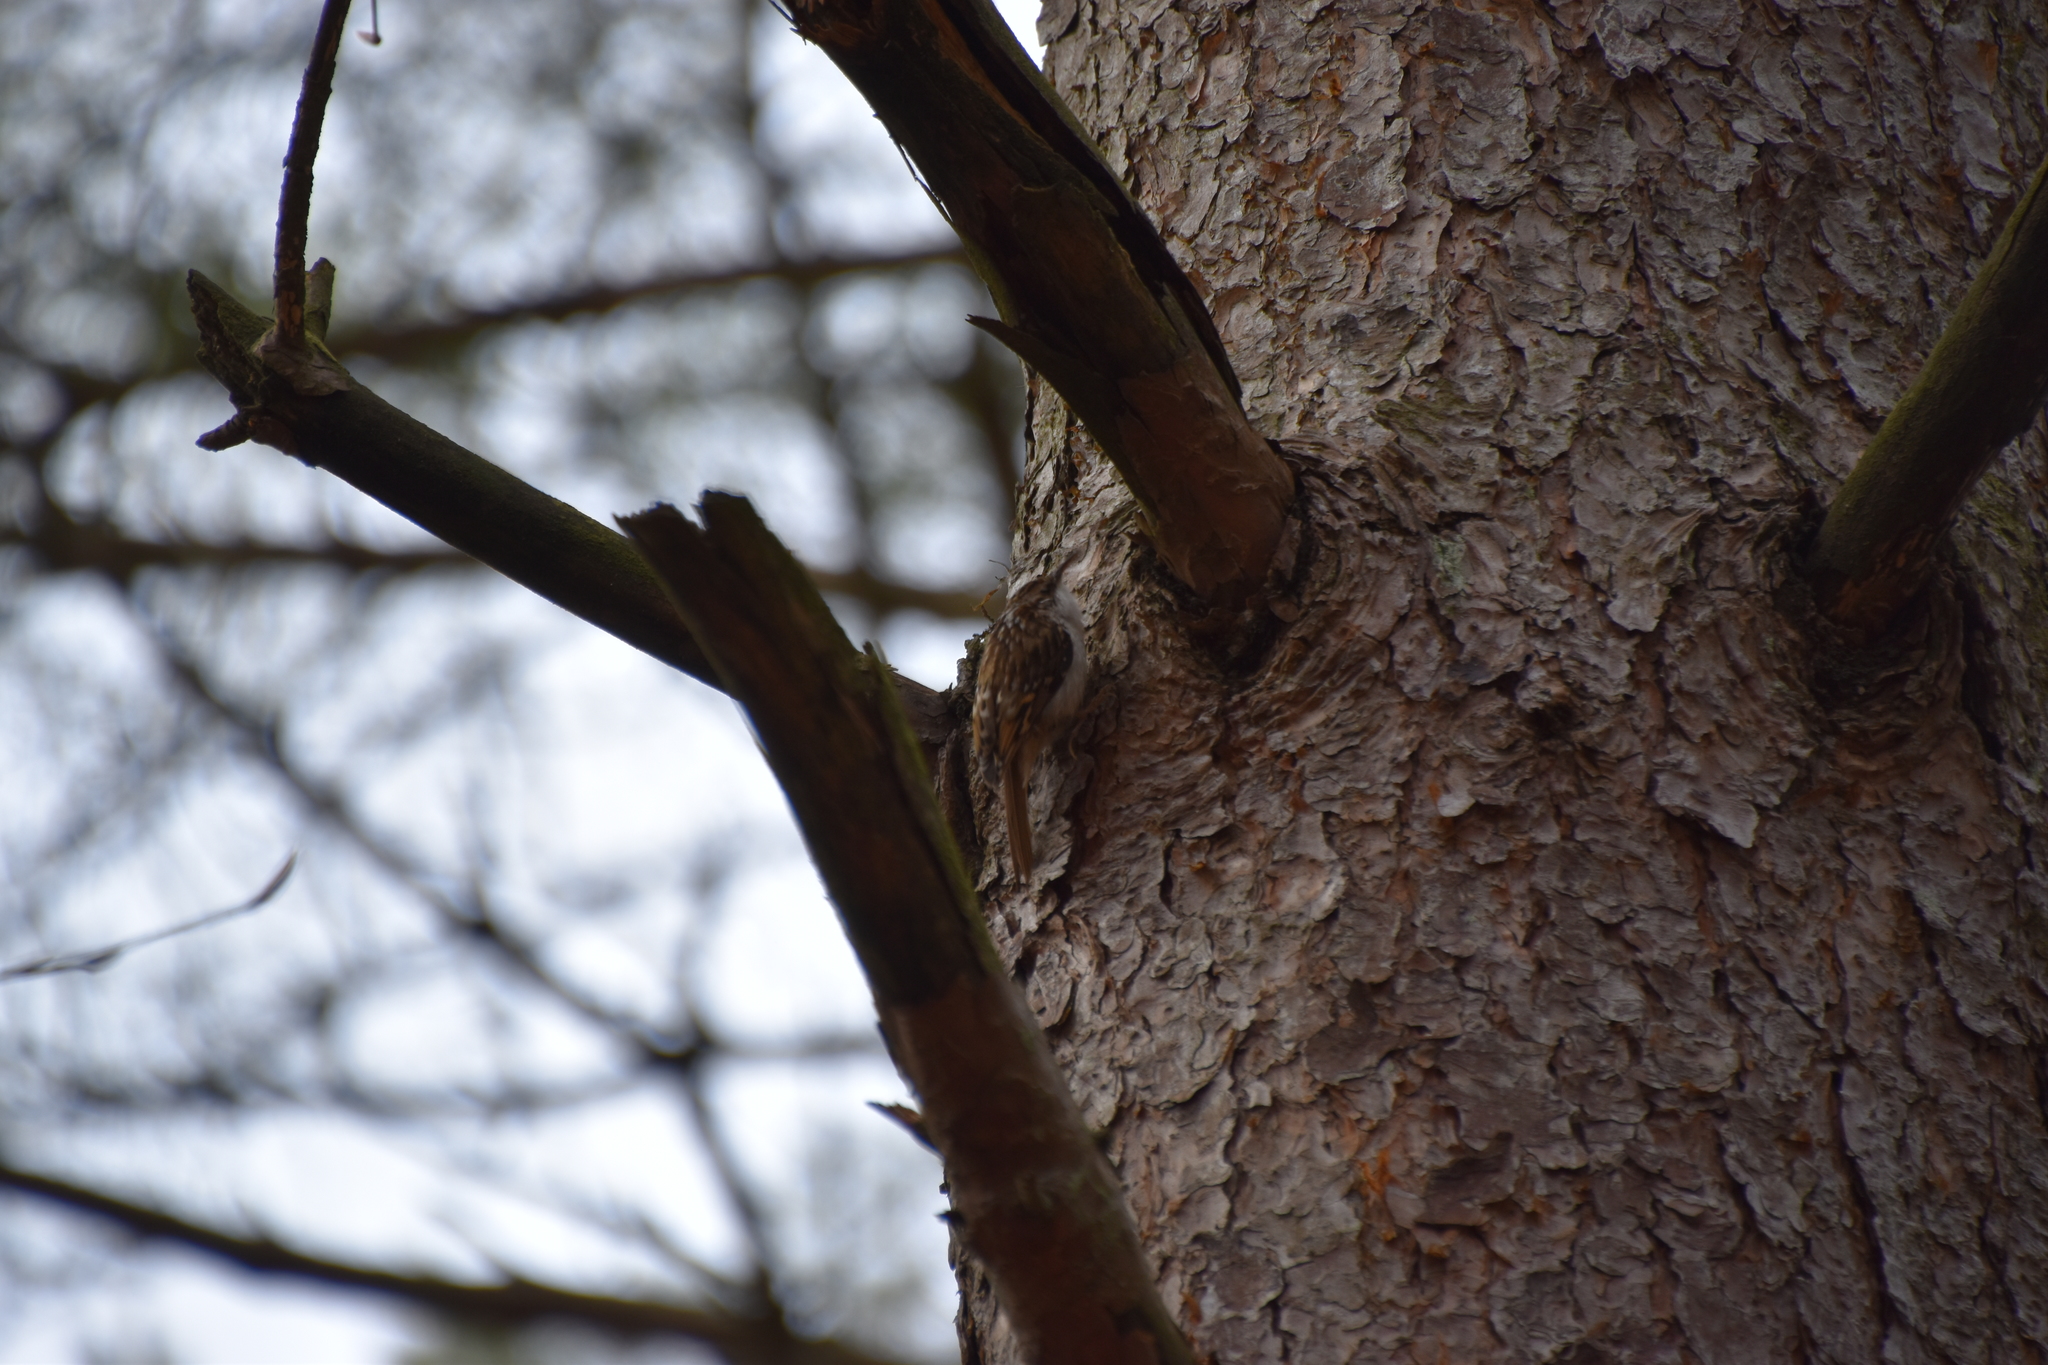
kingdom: Animalia
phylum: Chordata
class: Aves
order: Passeriformes
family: Certhiidae
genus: Certhia
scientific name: Certhia familiaris
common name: Eurasian treecreeper
